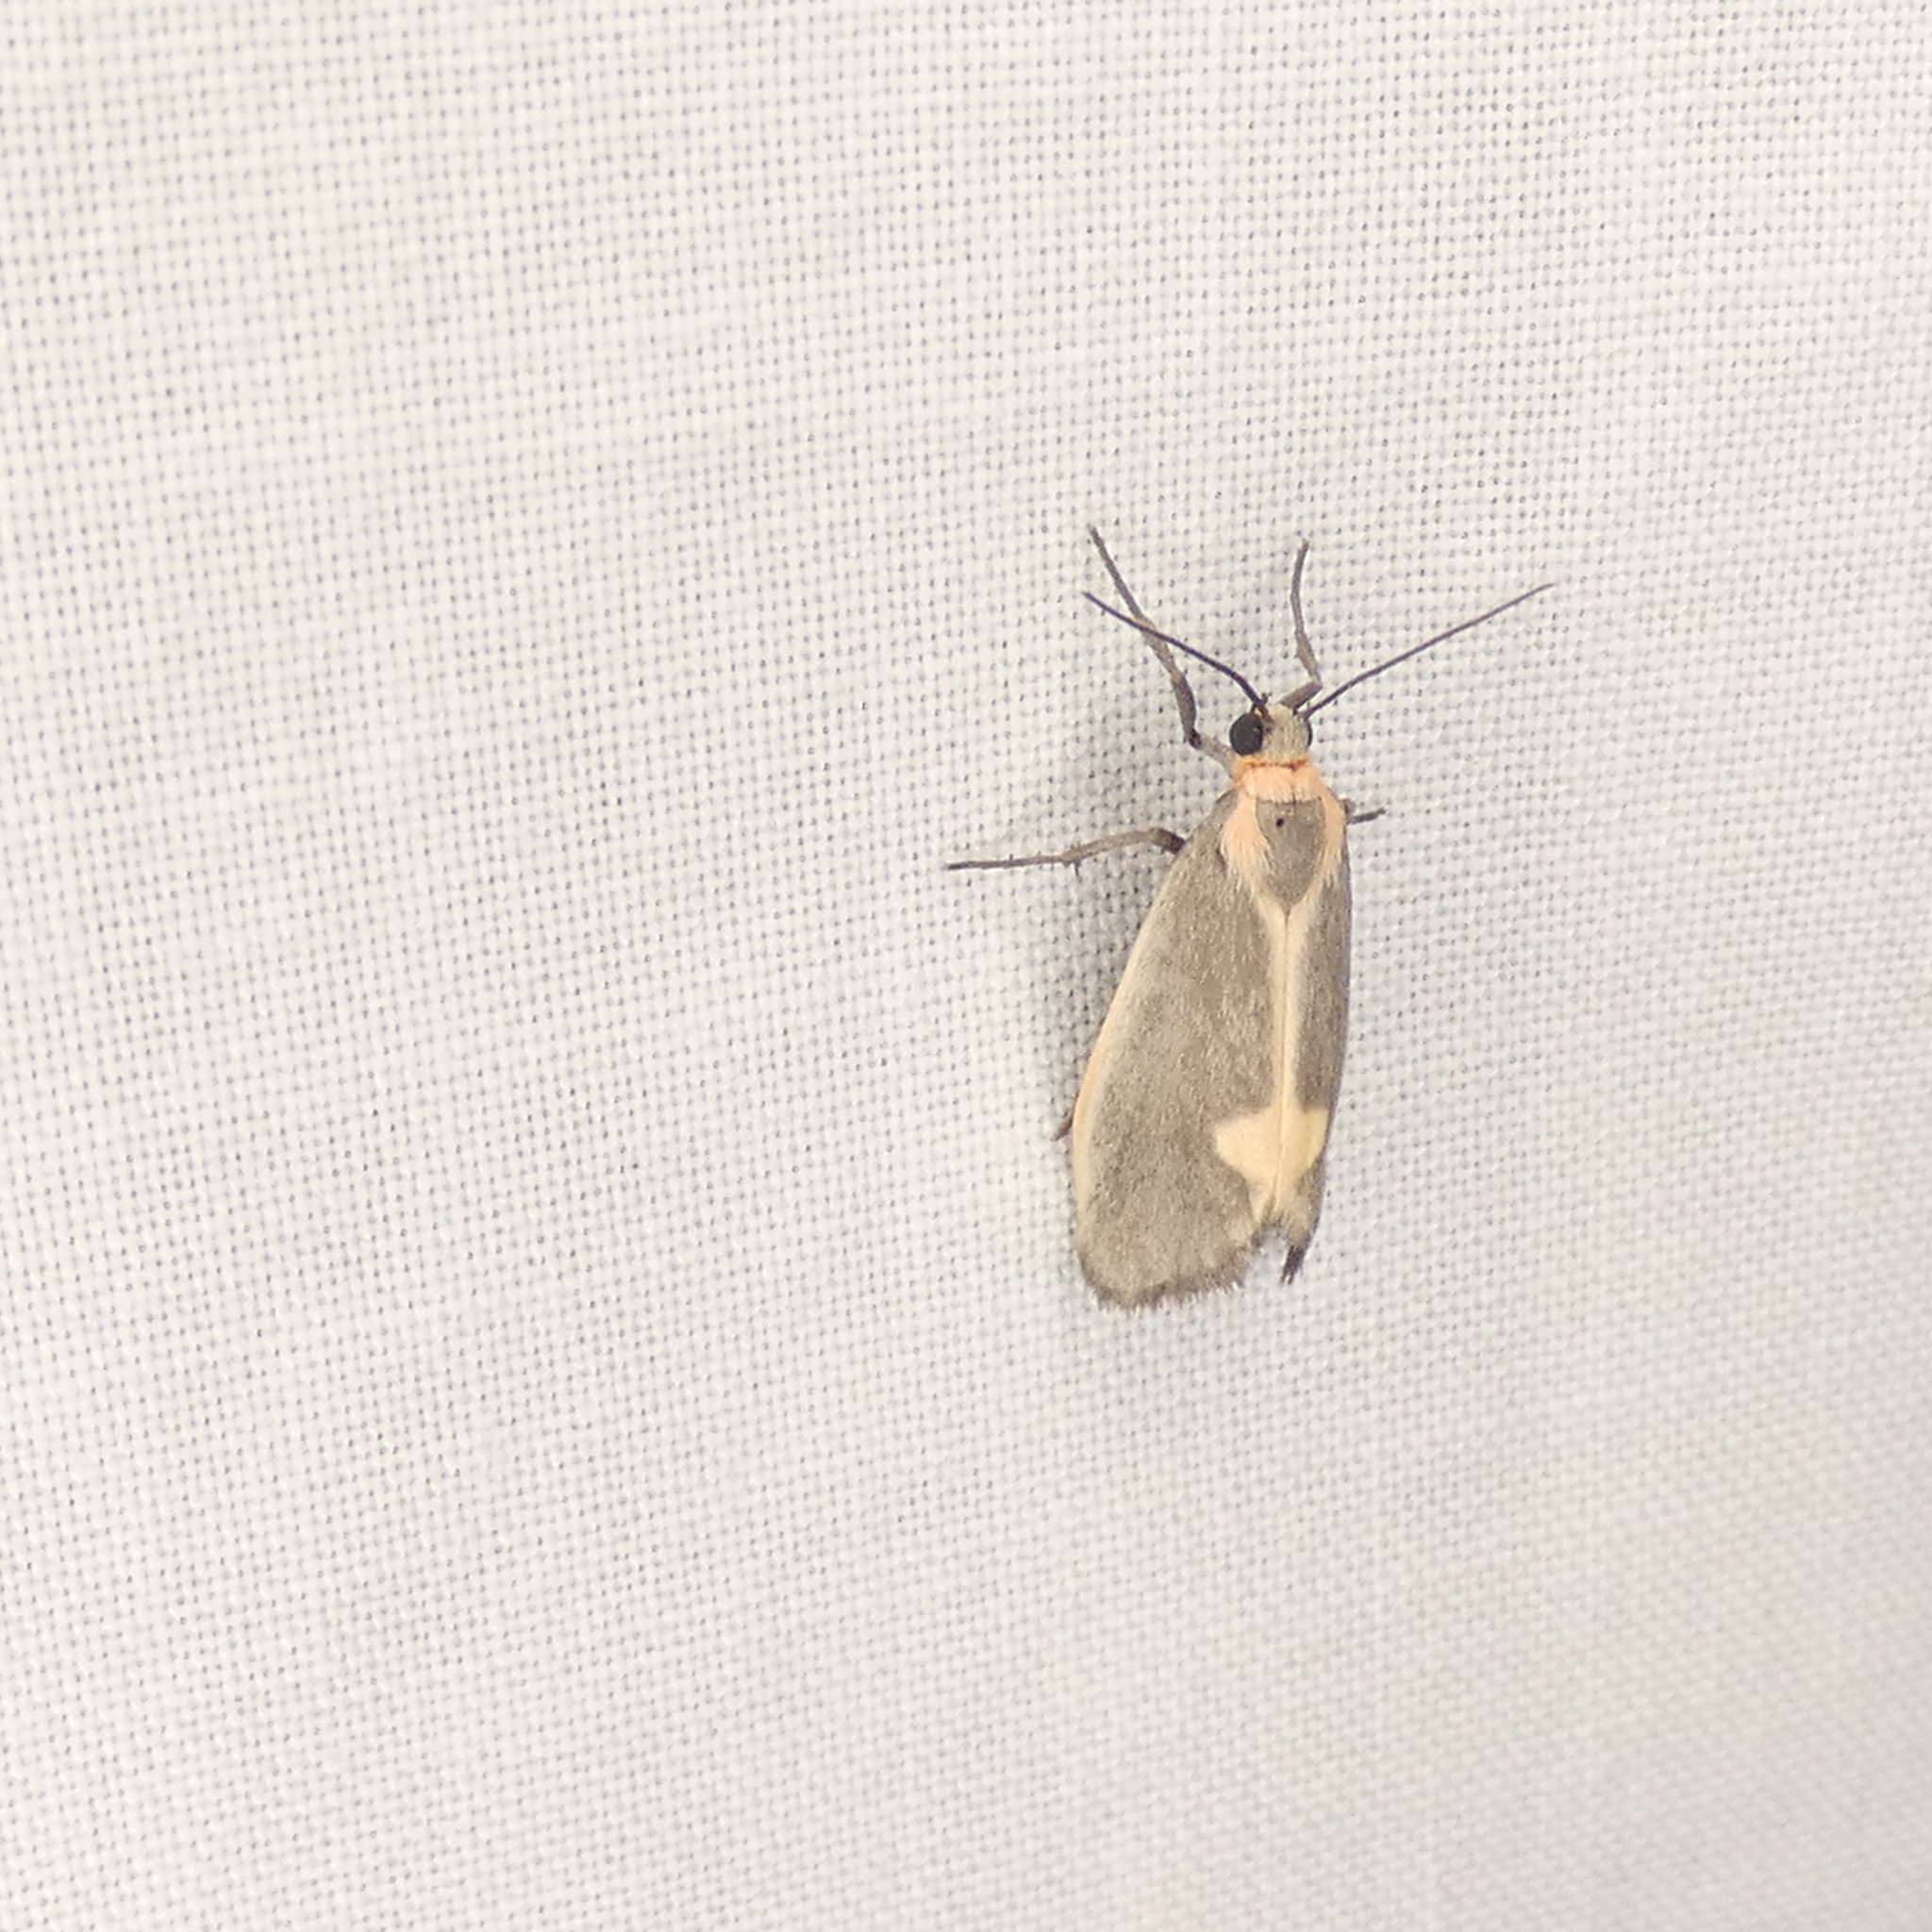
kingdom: Animalia
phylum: Arthropoda
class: Insecta
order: Lepidoptera
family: Erebidae
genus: Cisthene
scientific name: Cisthene plumbea
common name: Lead colored lichen moth
